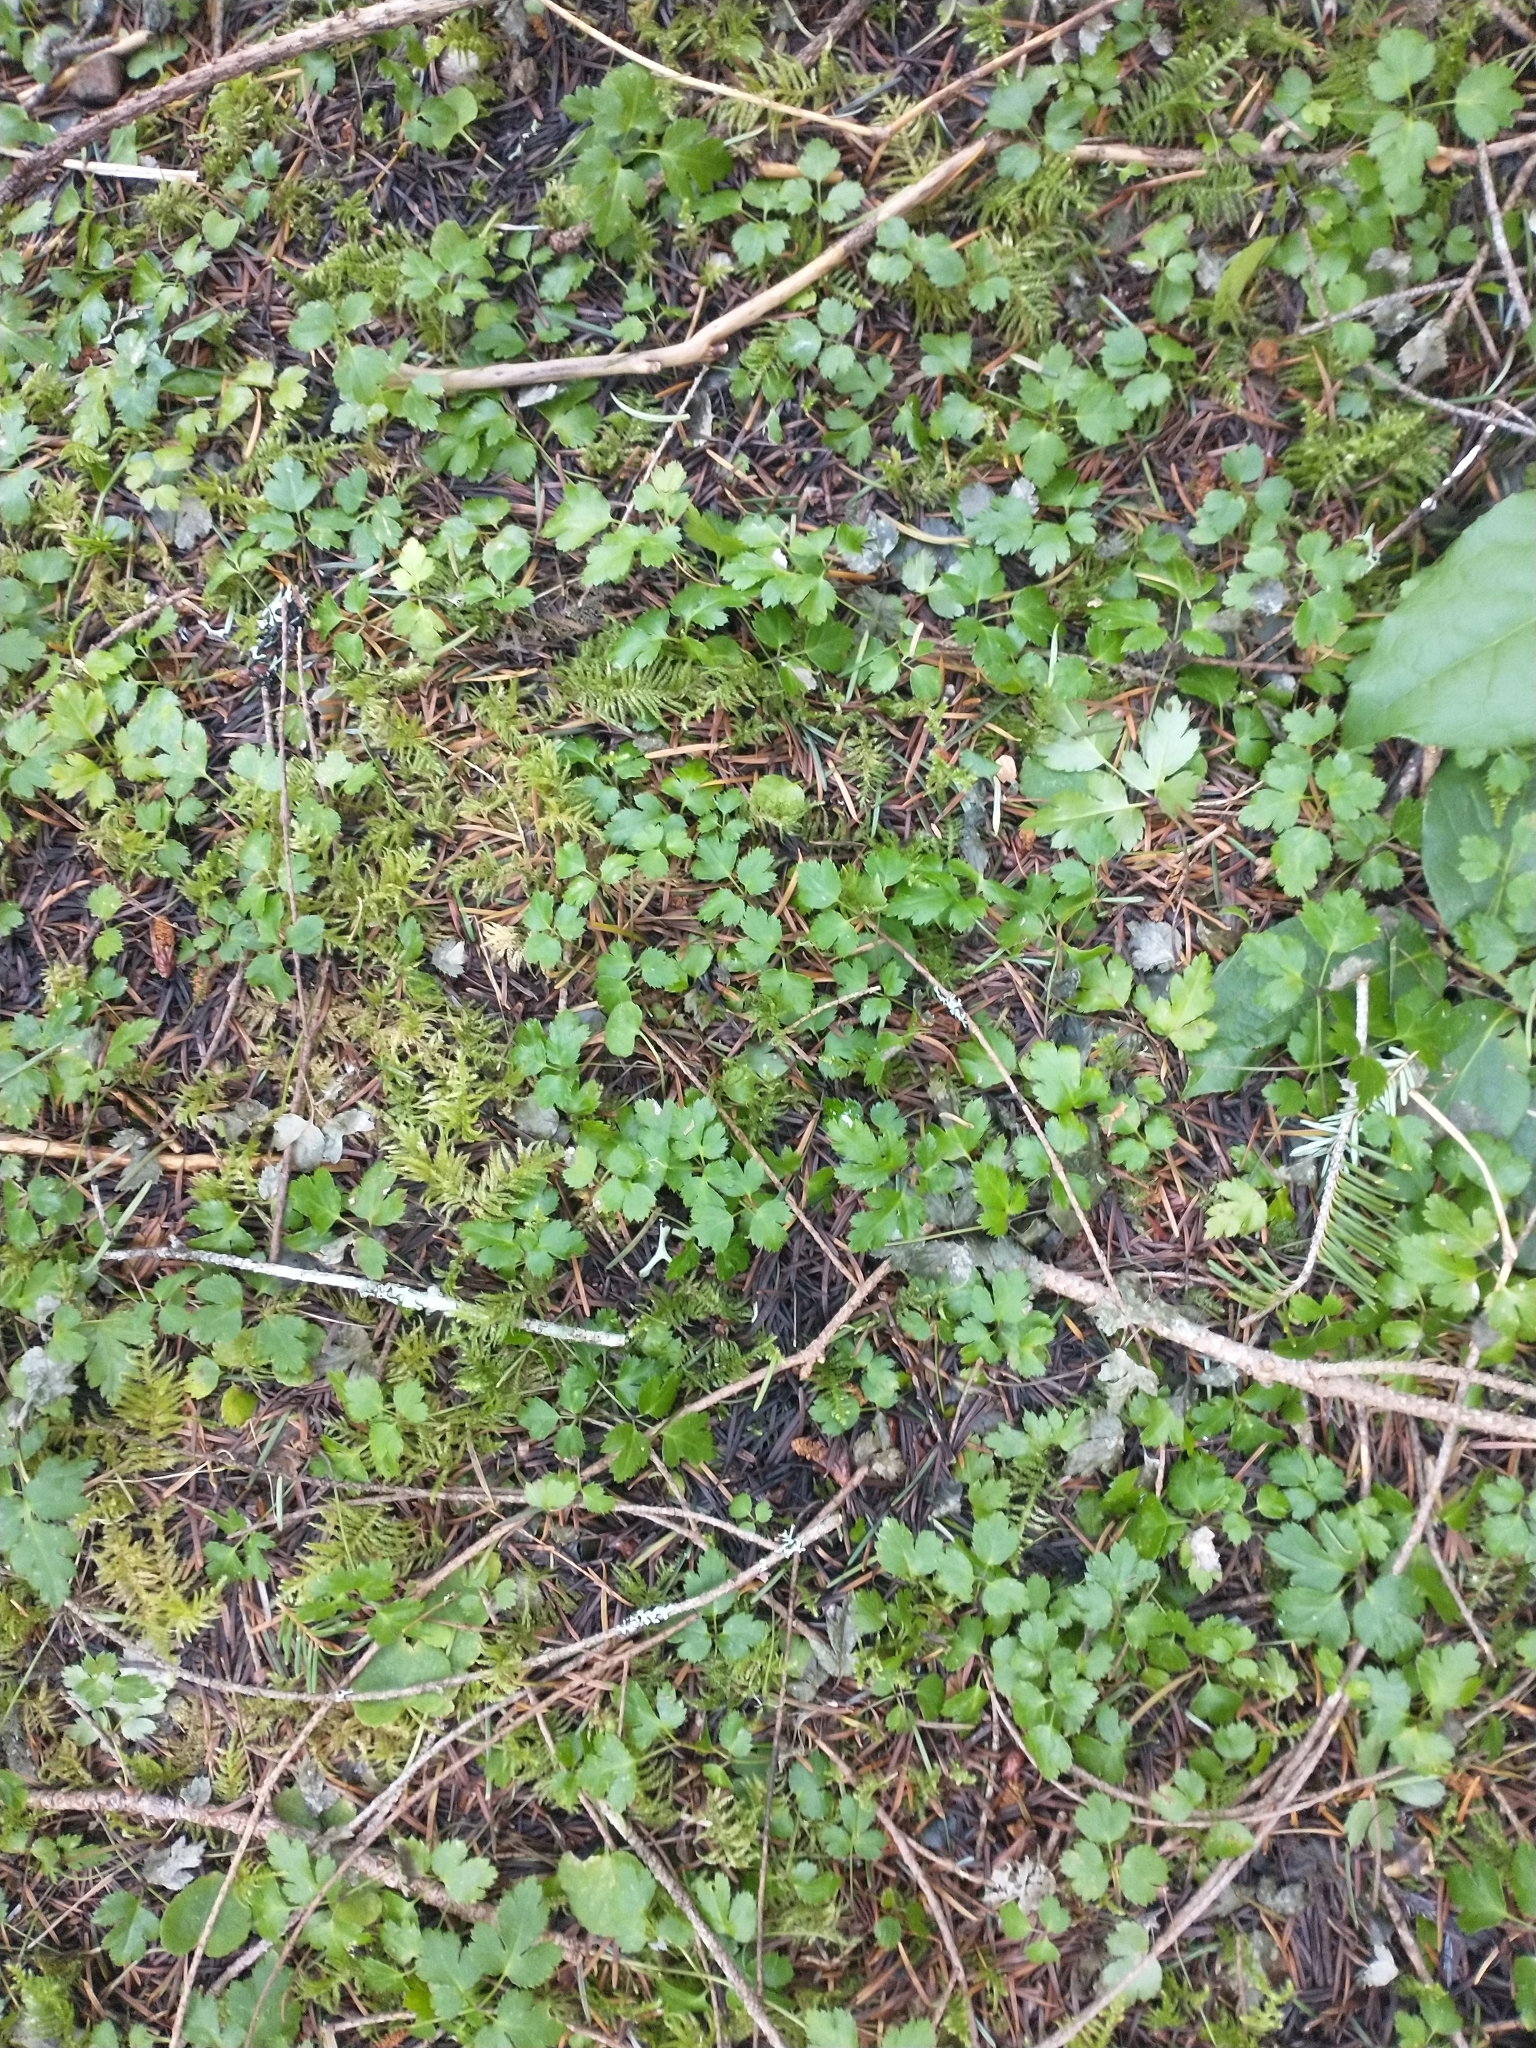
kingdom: Plantae
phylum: Tracheophyta
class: Magnoliopsida
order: Ranunculales
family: Ranunculaceae
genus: Coptis
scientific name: Coptis laciniata
